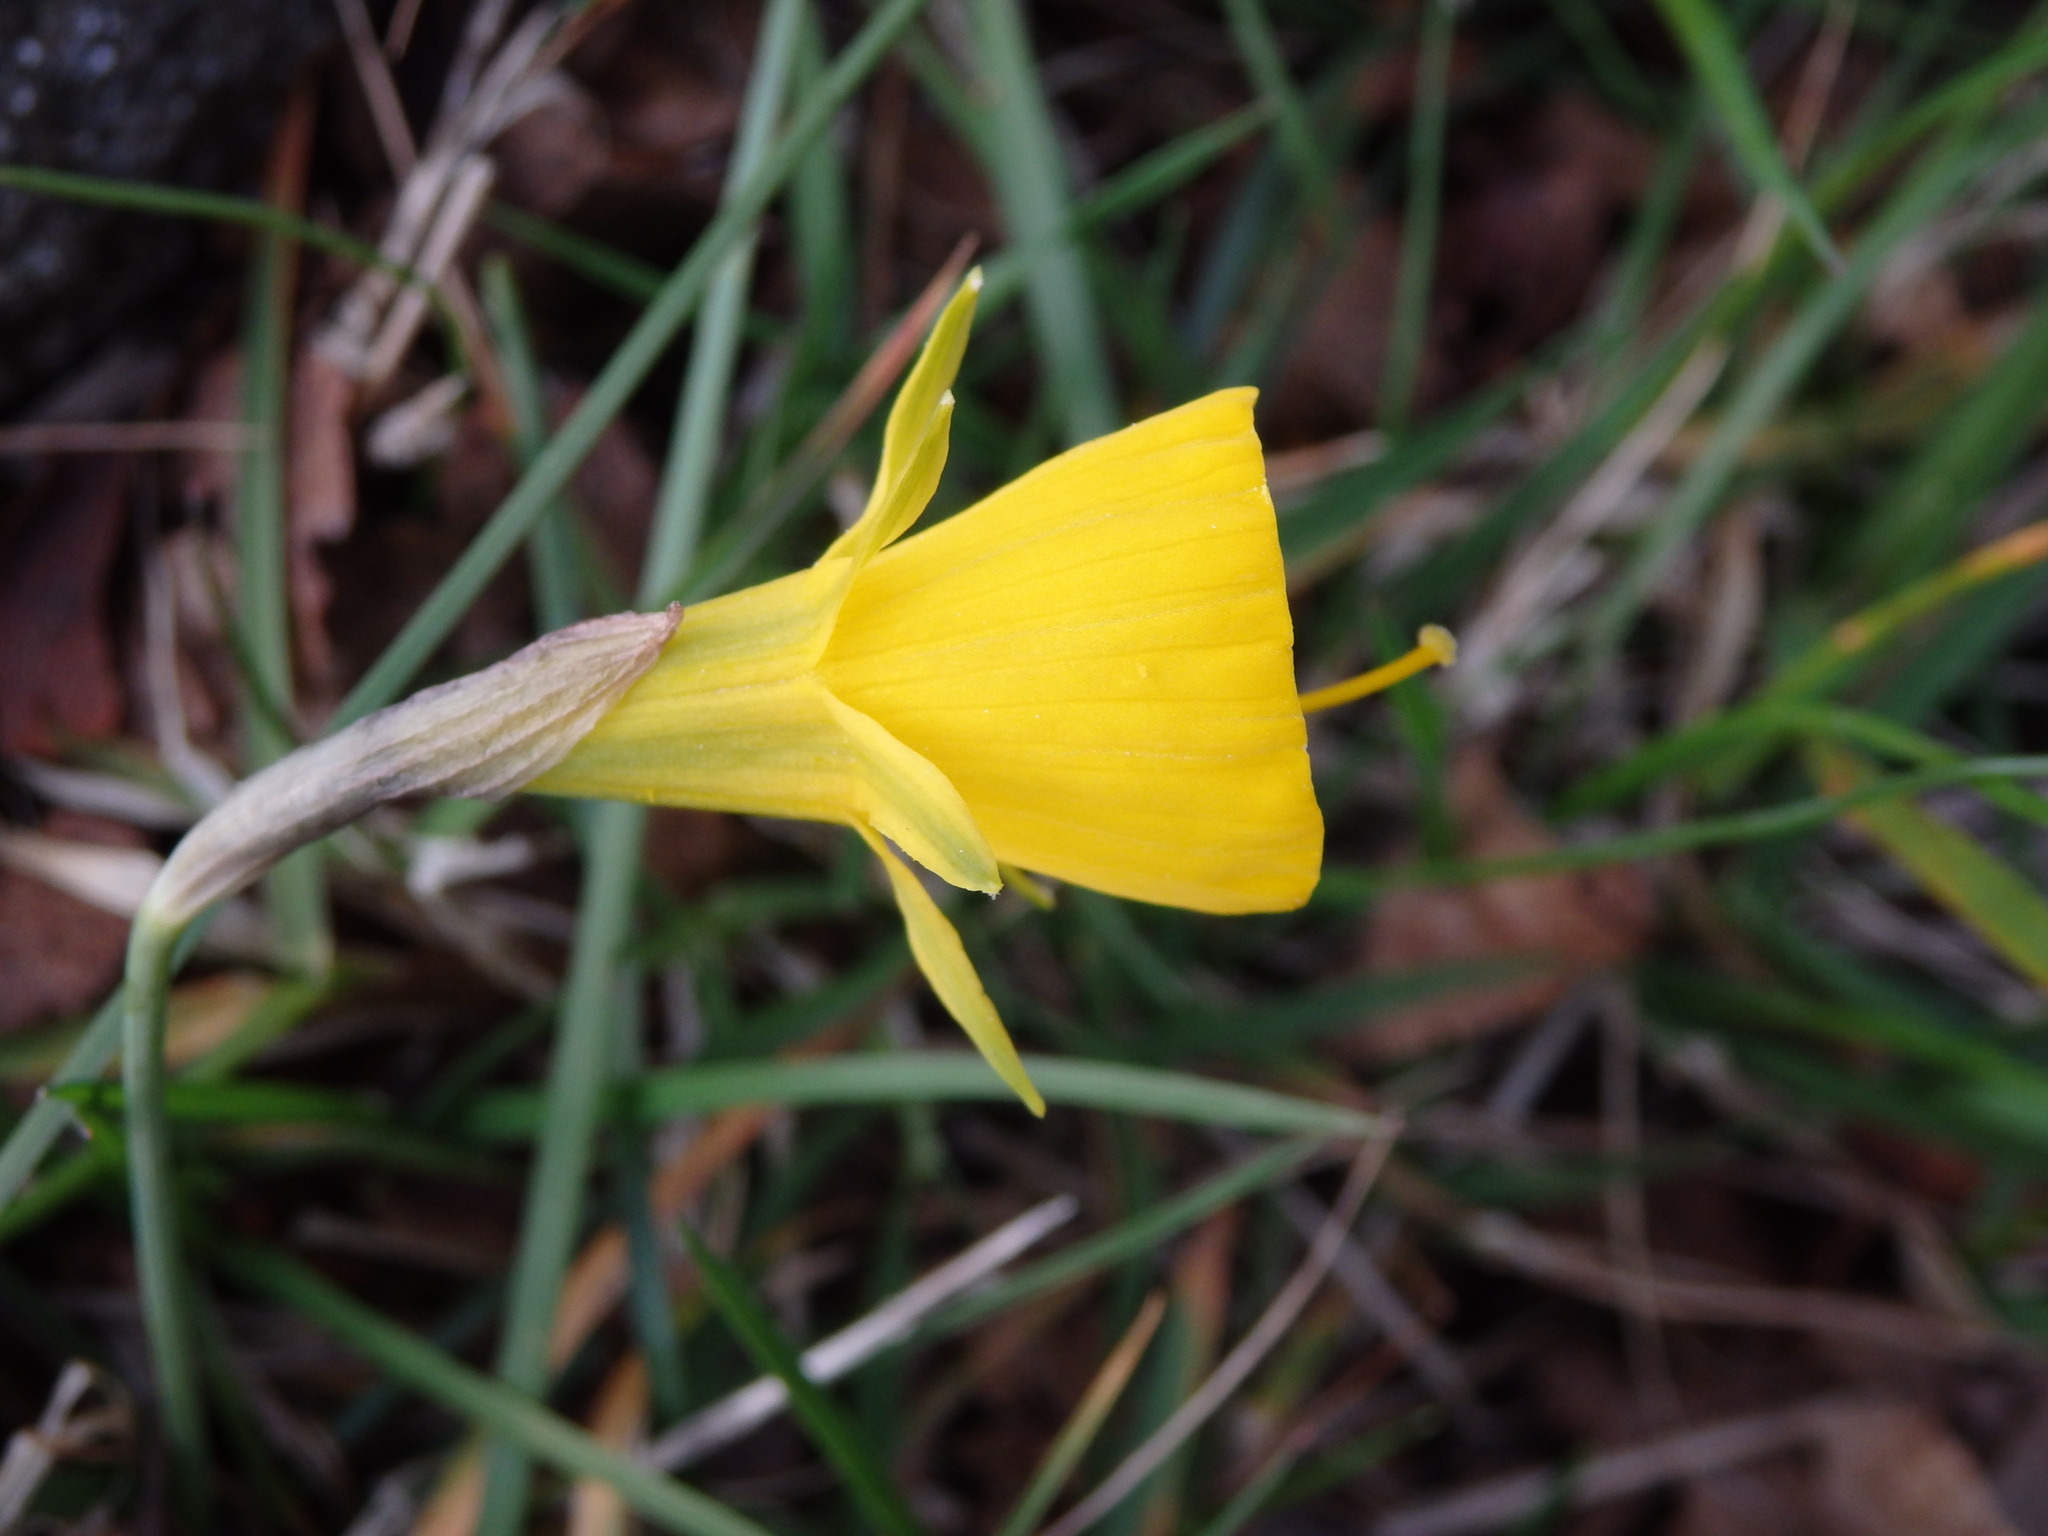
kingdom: Plantae
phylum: Tracheophyta
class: Liliopsida
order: Asparagales
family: Amaryllidaceae
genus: Narcissus
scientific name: Narcissus bulbocodium
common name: Hoop-petticoat daffodil
